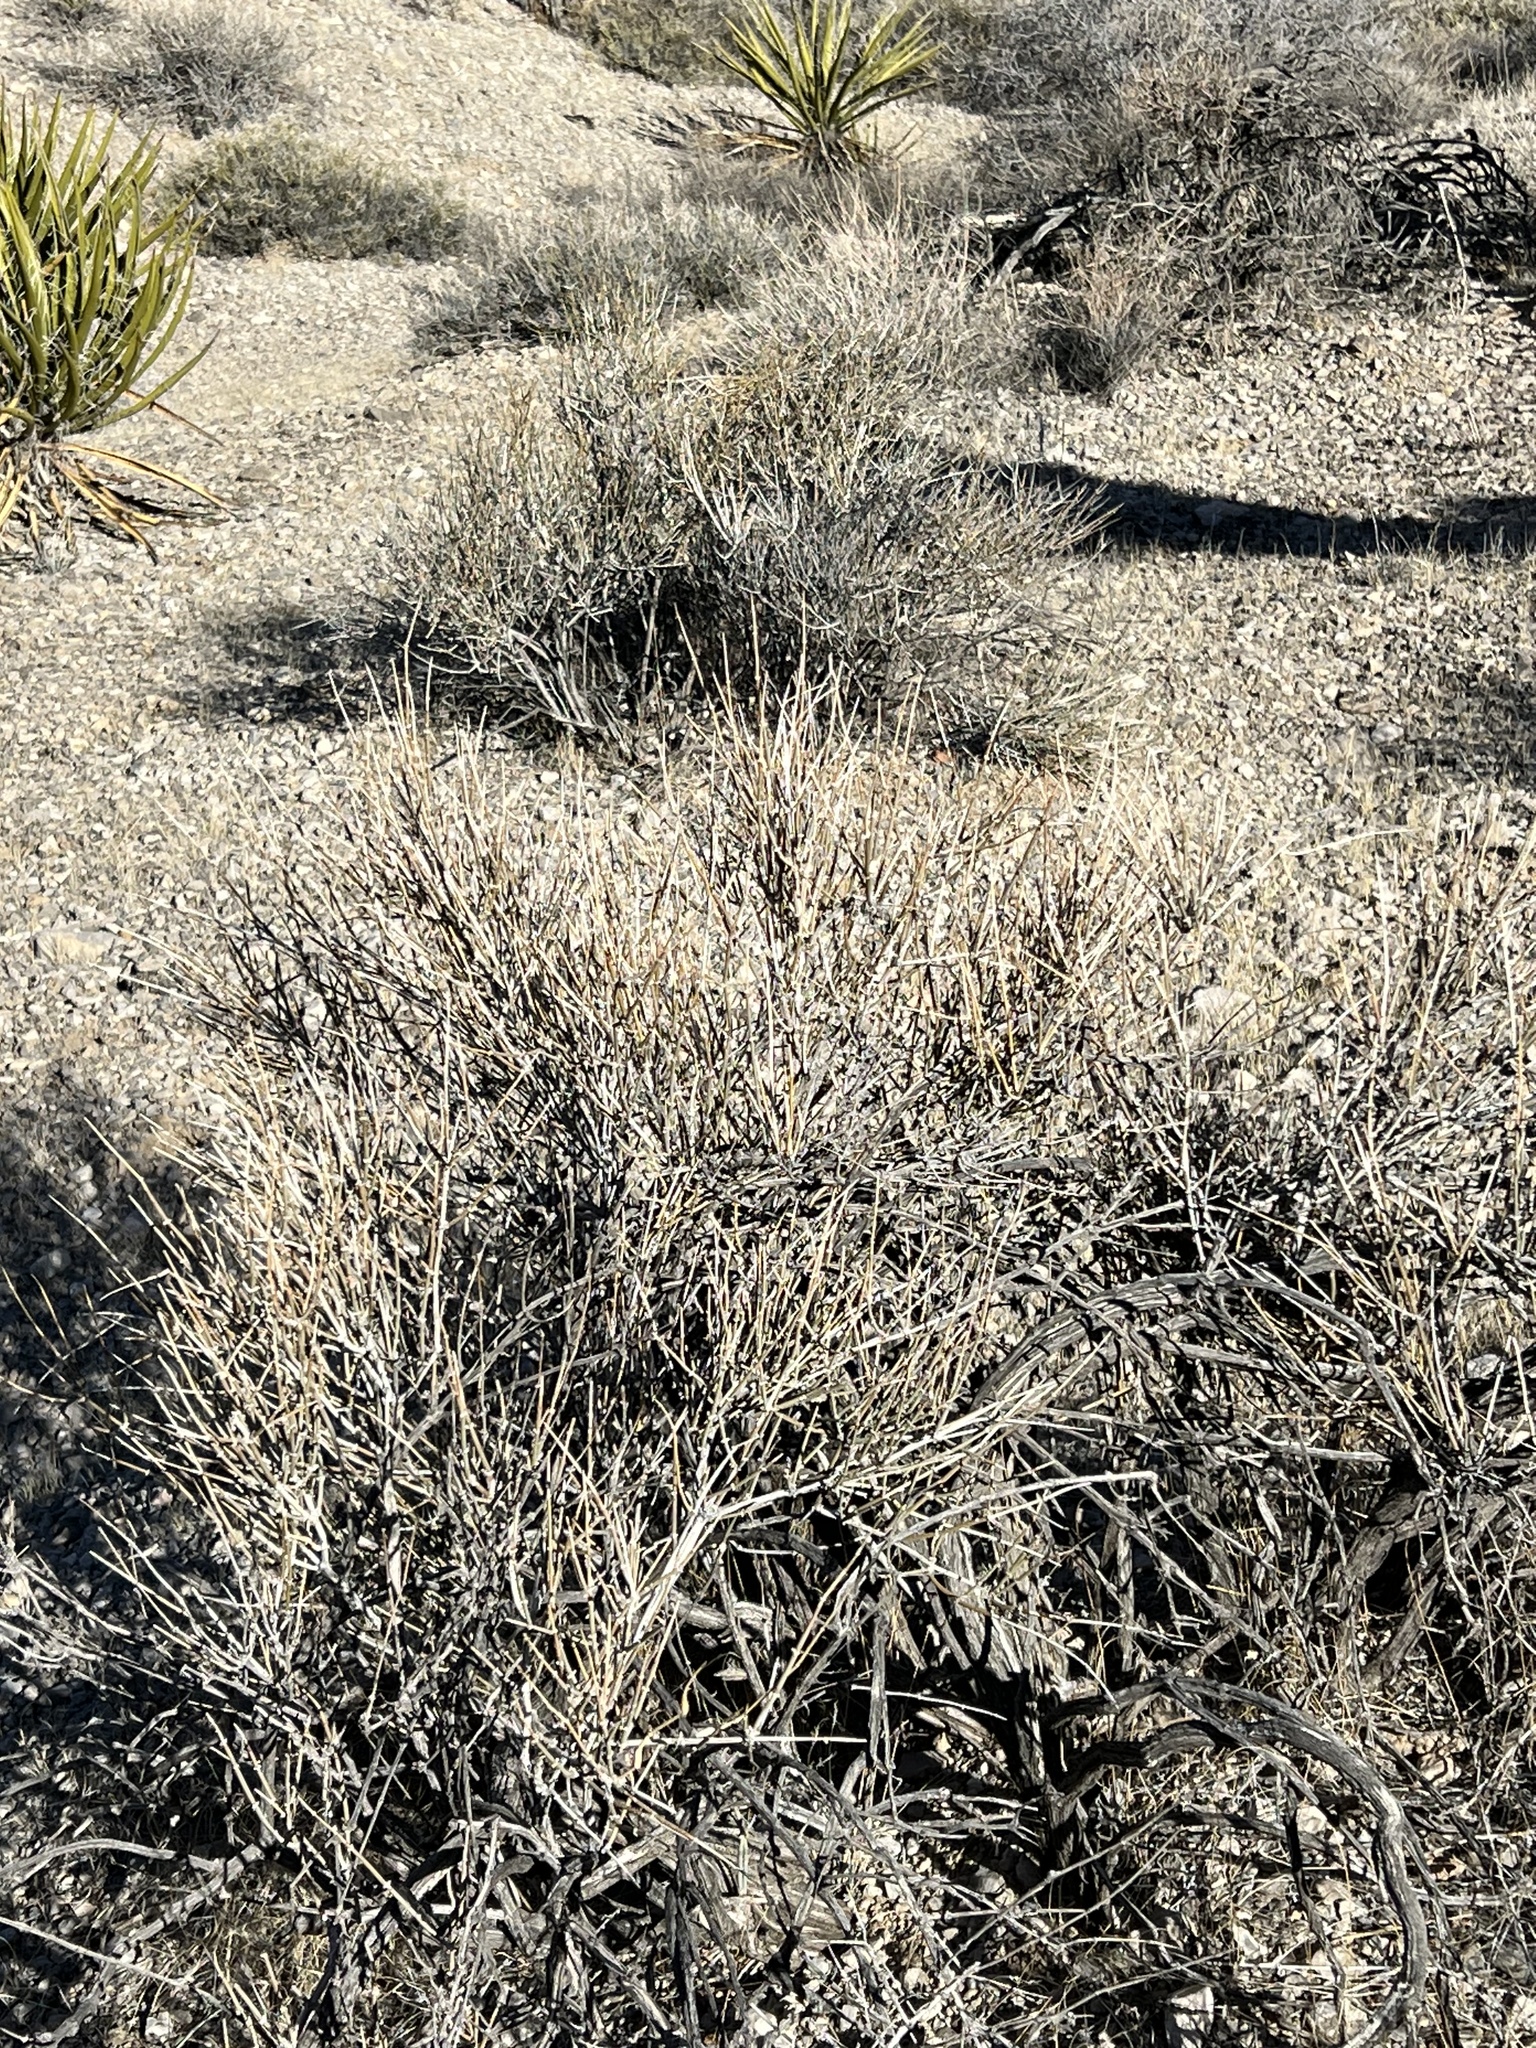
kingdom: Plantae
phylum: Tracheophyta
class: Gnetopsida
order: Ephedrales
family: Ephedraceae
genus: Ephedra
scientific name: Ephedra nevadensis
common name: Gray ephedra
